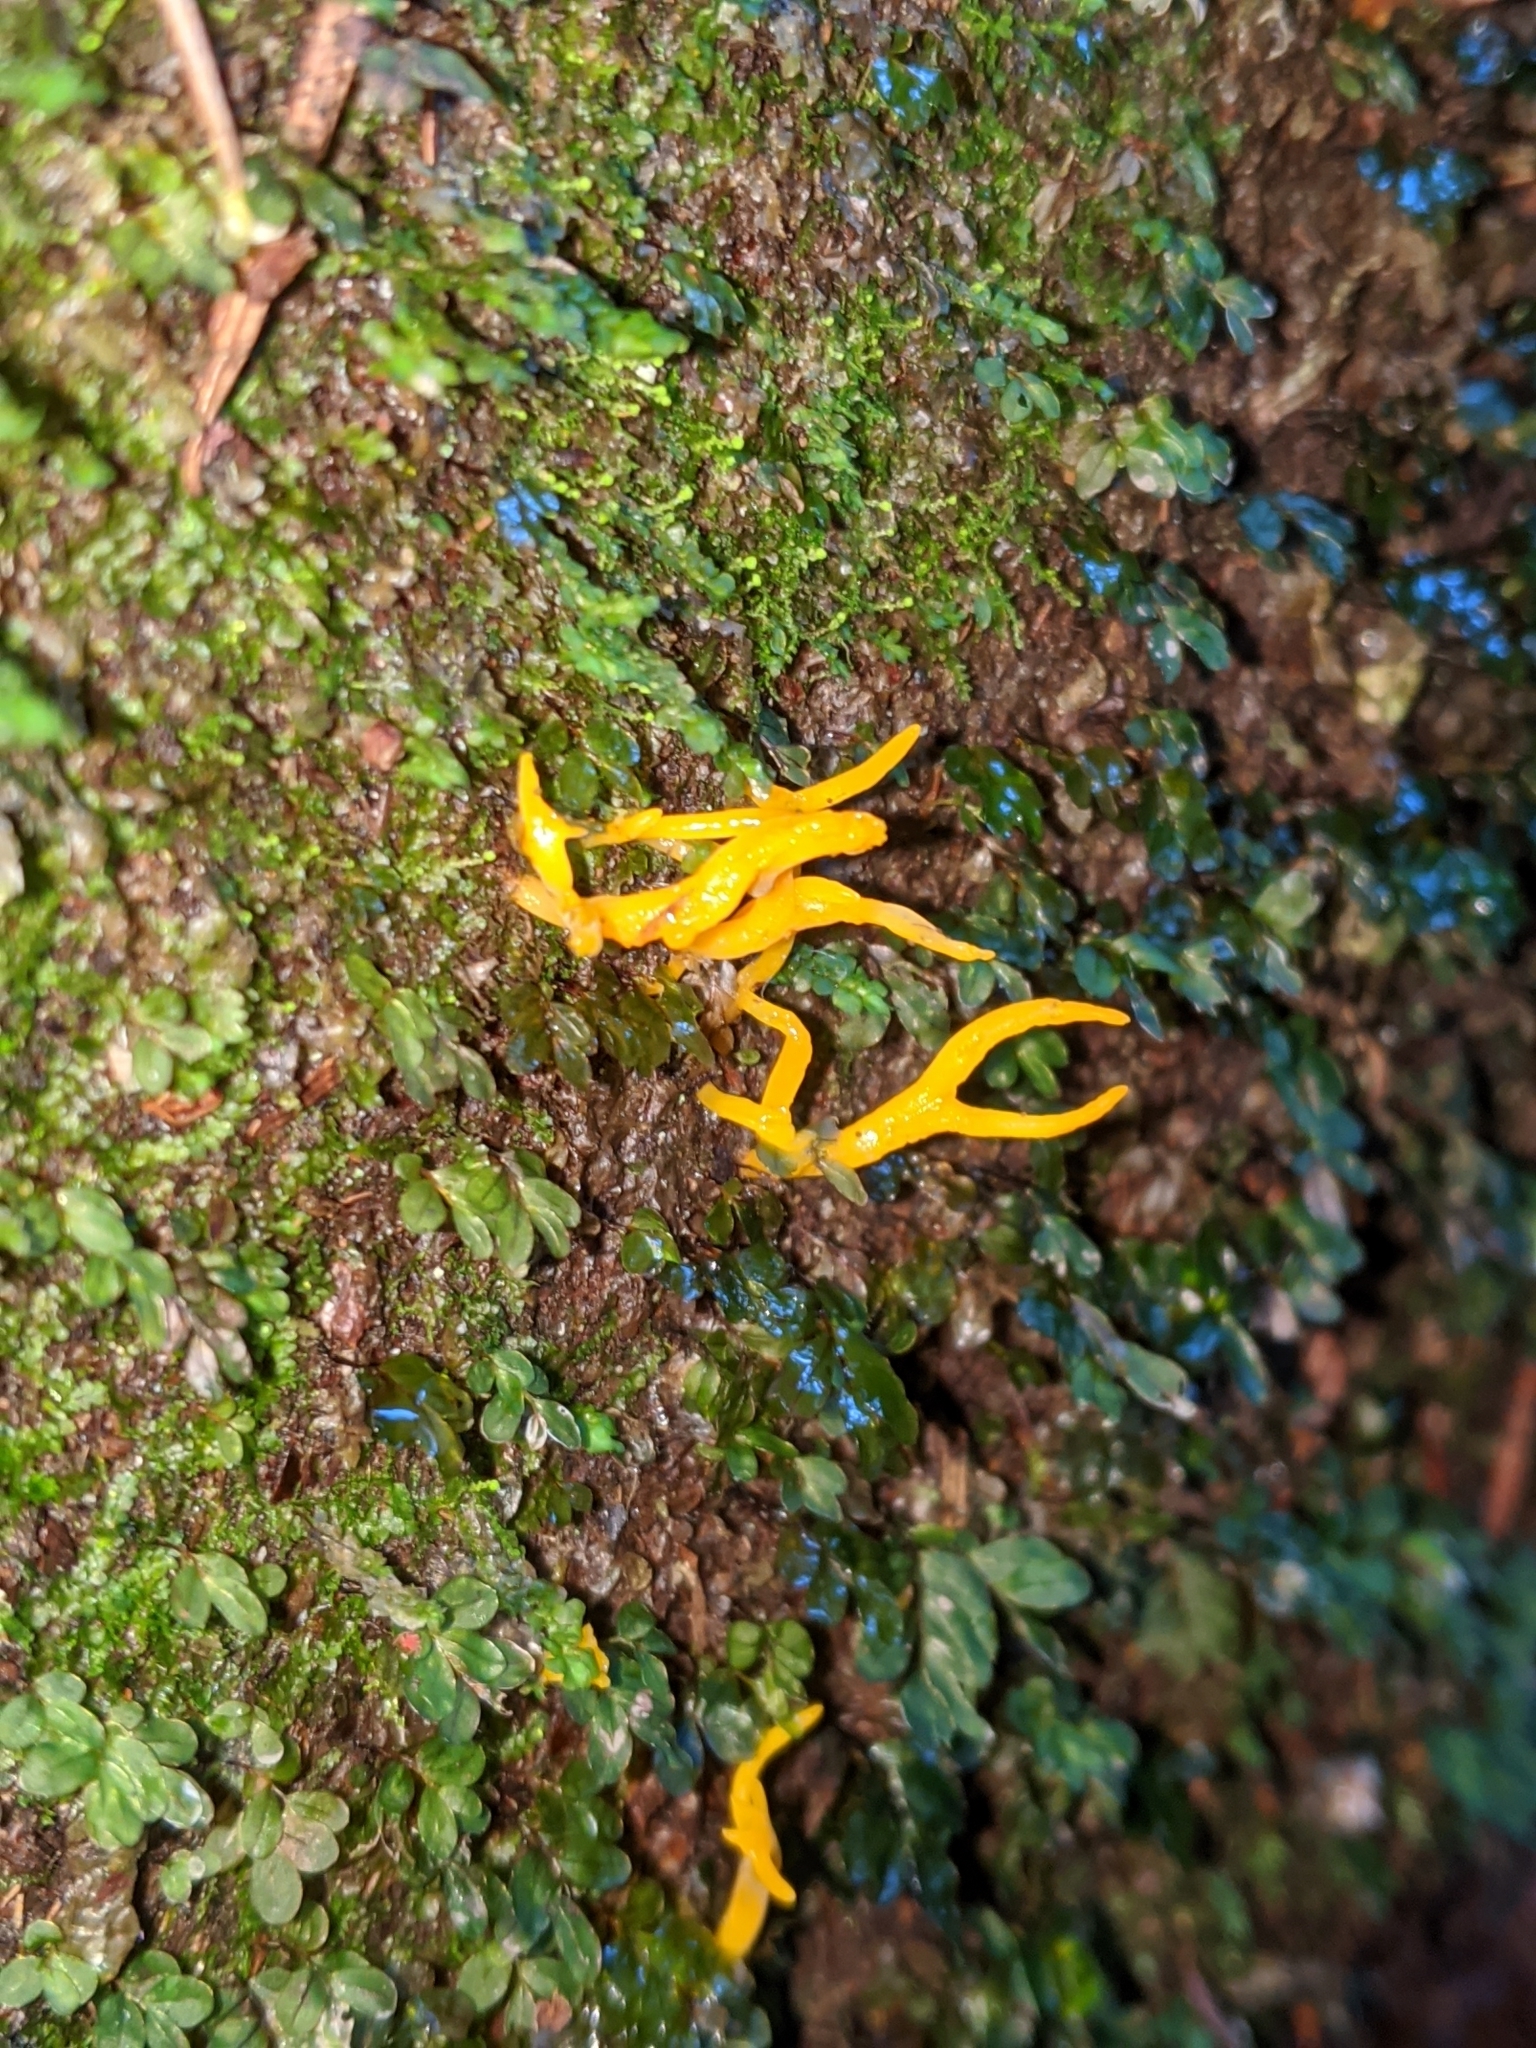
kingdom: Fungi
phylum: Basidiomycota
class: Dacrymycetes
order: Dacrymycetales
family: Dacrymycetaceae
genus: Calocera
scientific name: Calocera cornea
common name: Small stagshorn
